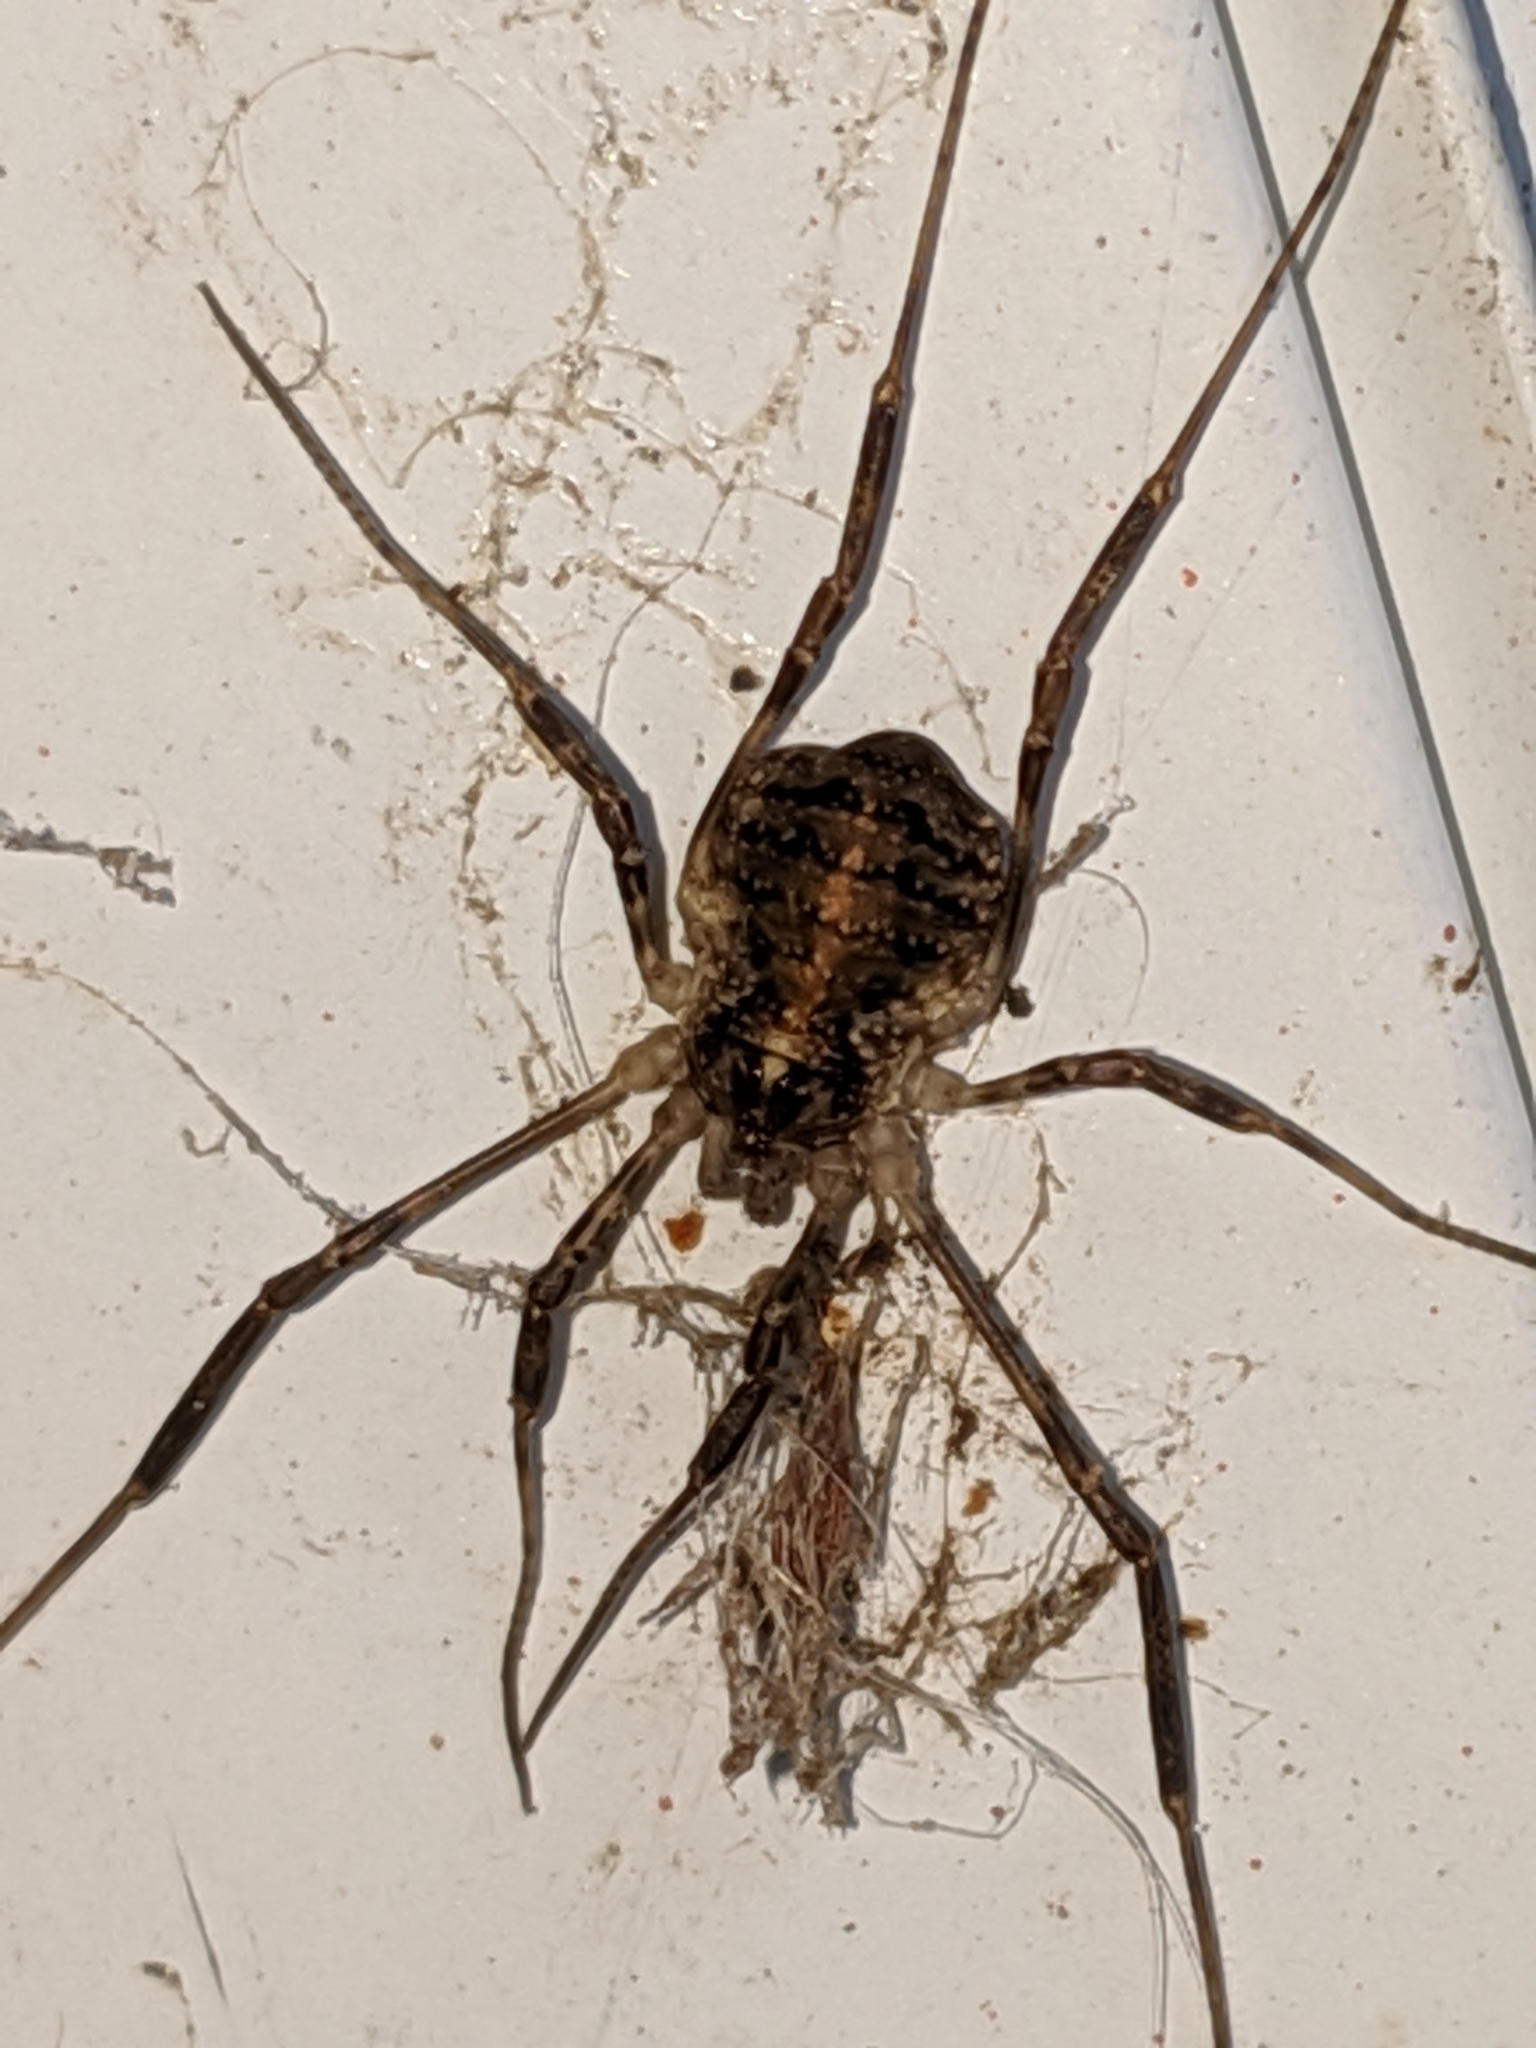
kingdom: Animalia
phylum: Arthropoda
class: Arachnida
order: Opiliones
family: Phalangiidae
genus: Paroligolophus
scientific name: Paroligolophus agrestis
